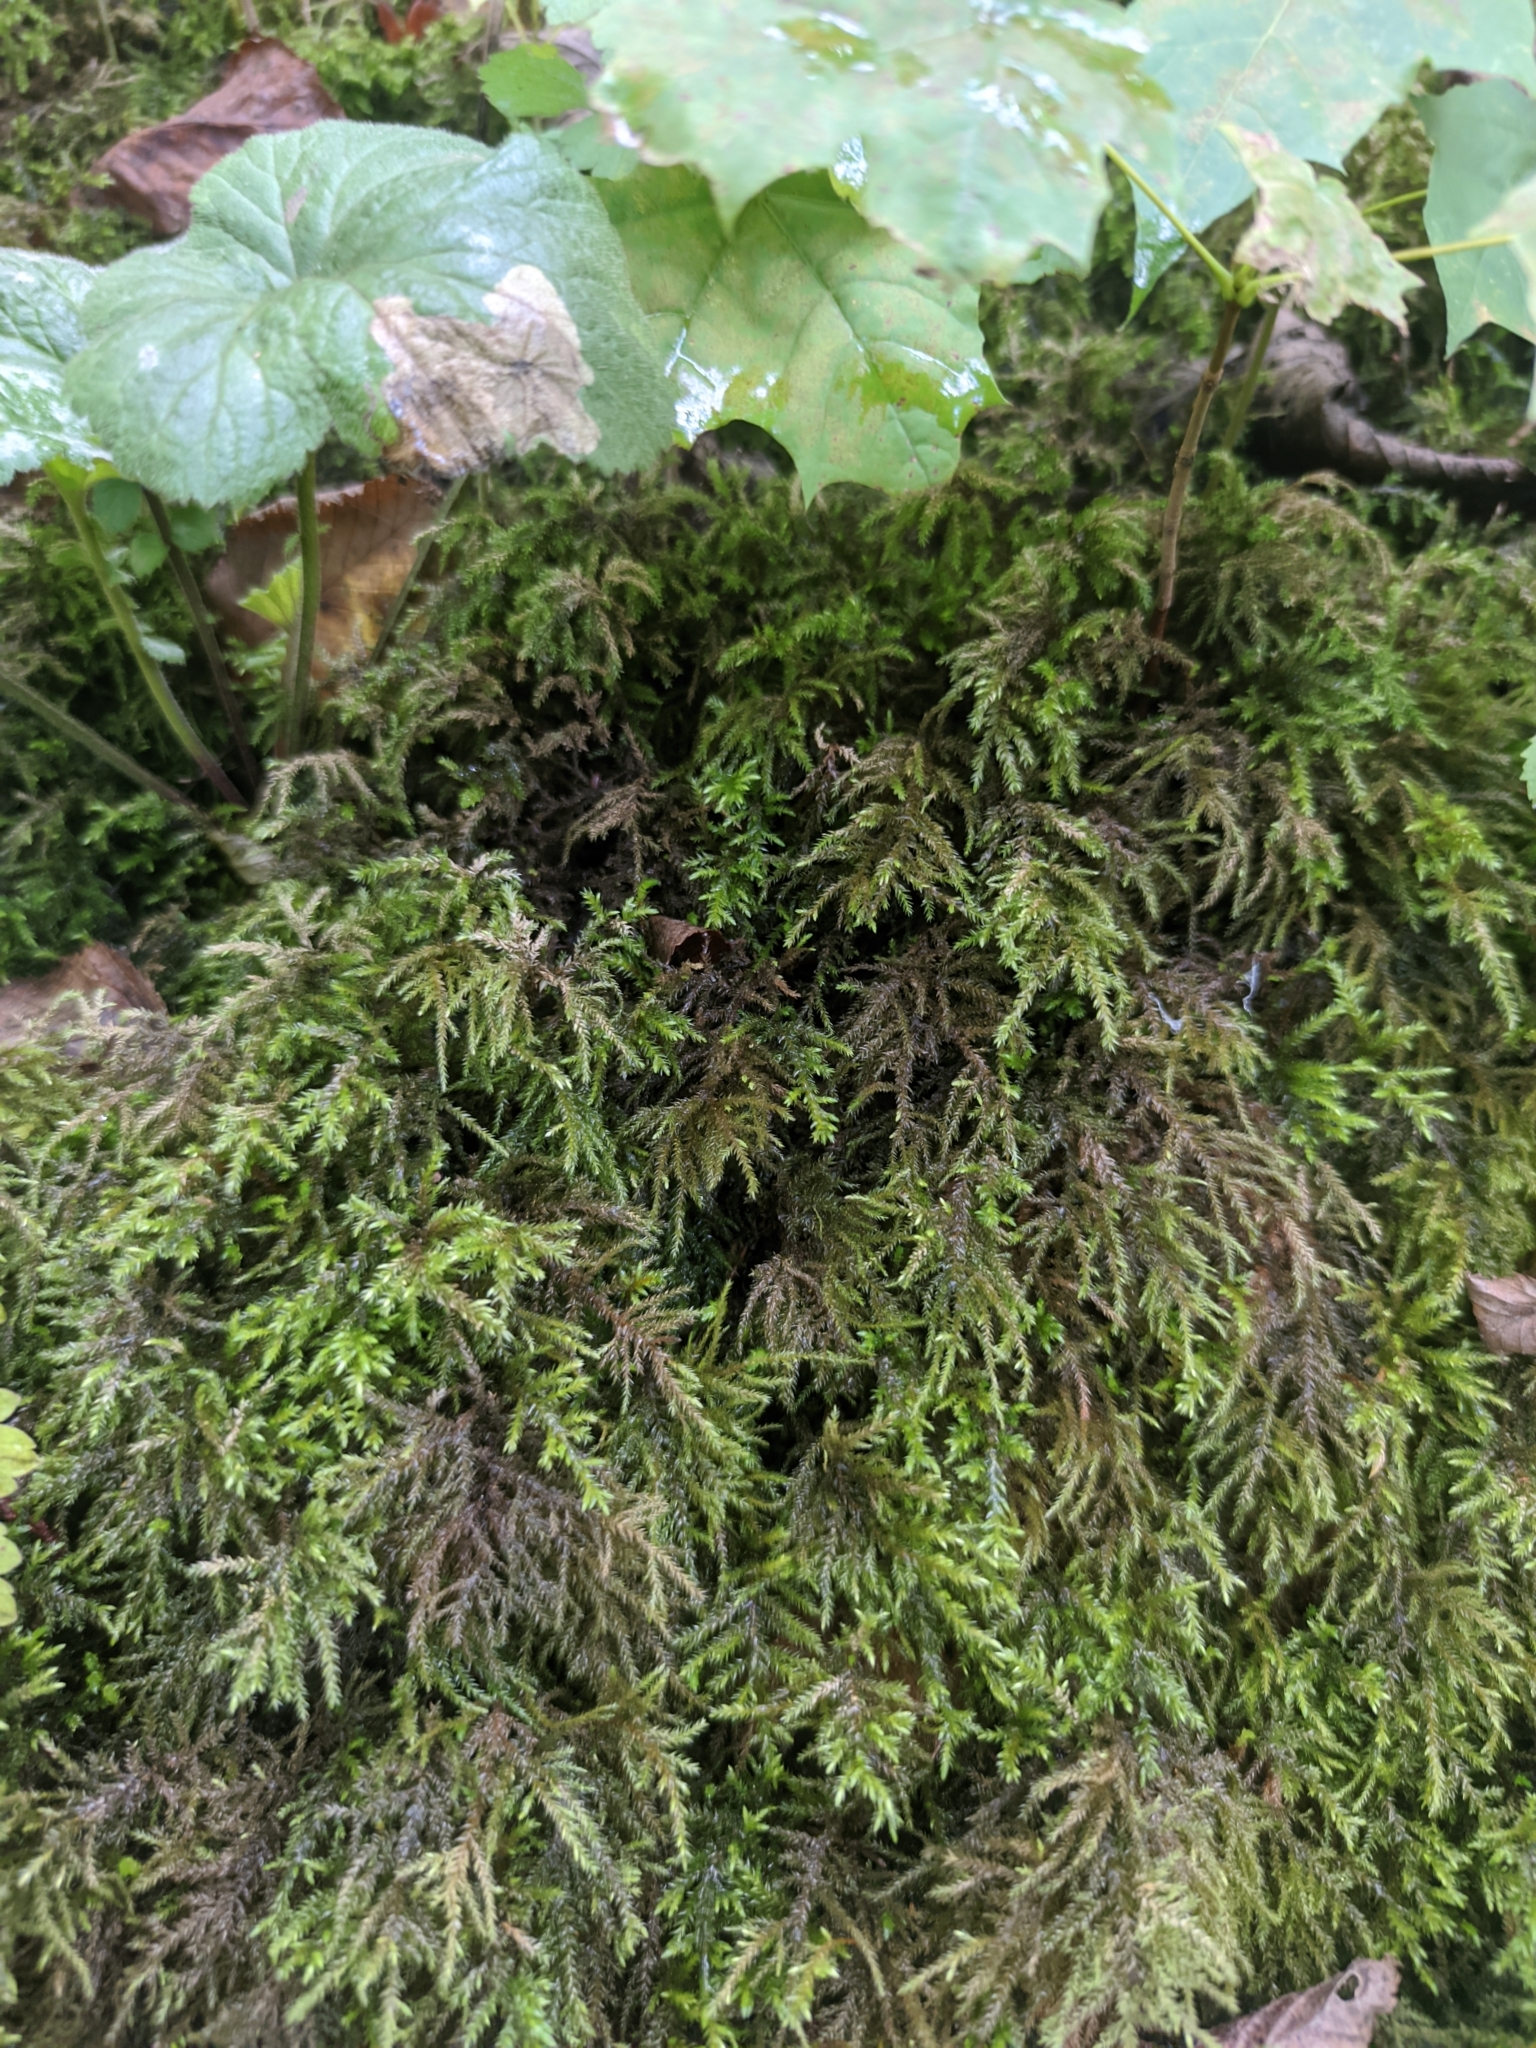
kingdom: Plantae
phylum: Bryophyta
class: Bryopsida
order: Hypnales
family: Neckeraceae
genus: Thamnobryum
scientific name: Thamnobryum alopecurum
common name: Fox-tail feather-moss
